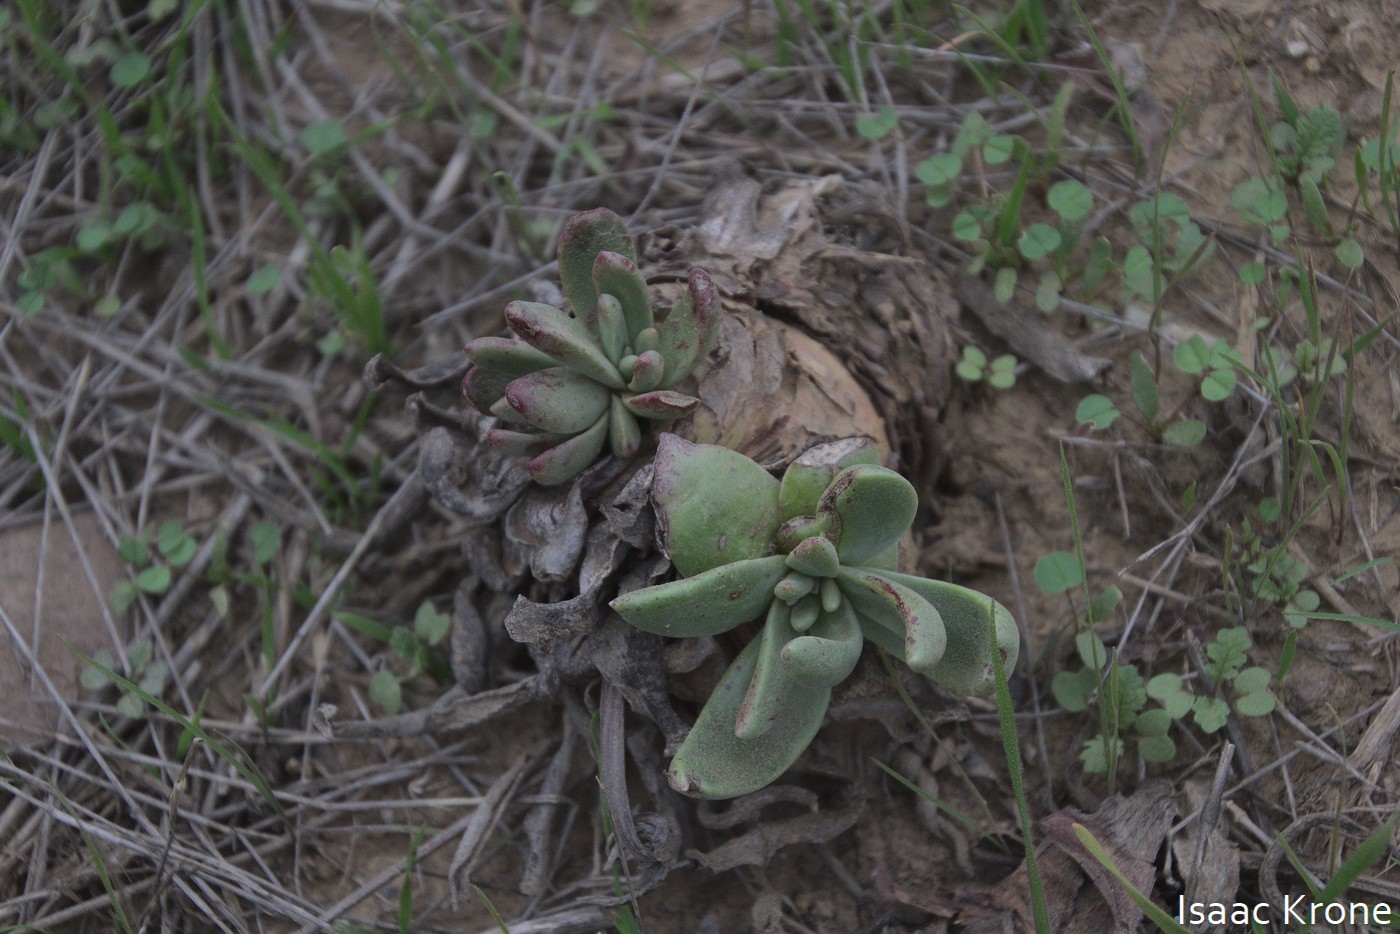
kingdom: Plantae
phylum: Tracheophyta
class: Magnoliopsida
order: Saxifragales
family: Crassulaceae
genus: Dudleya
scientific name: Dudleya virens
